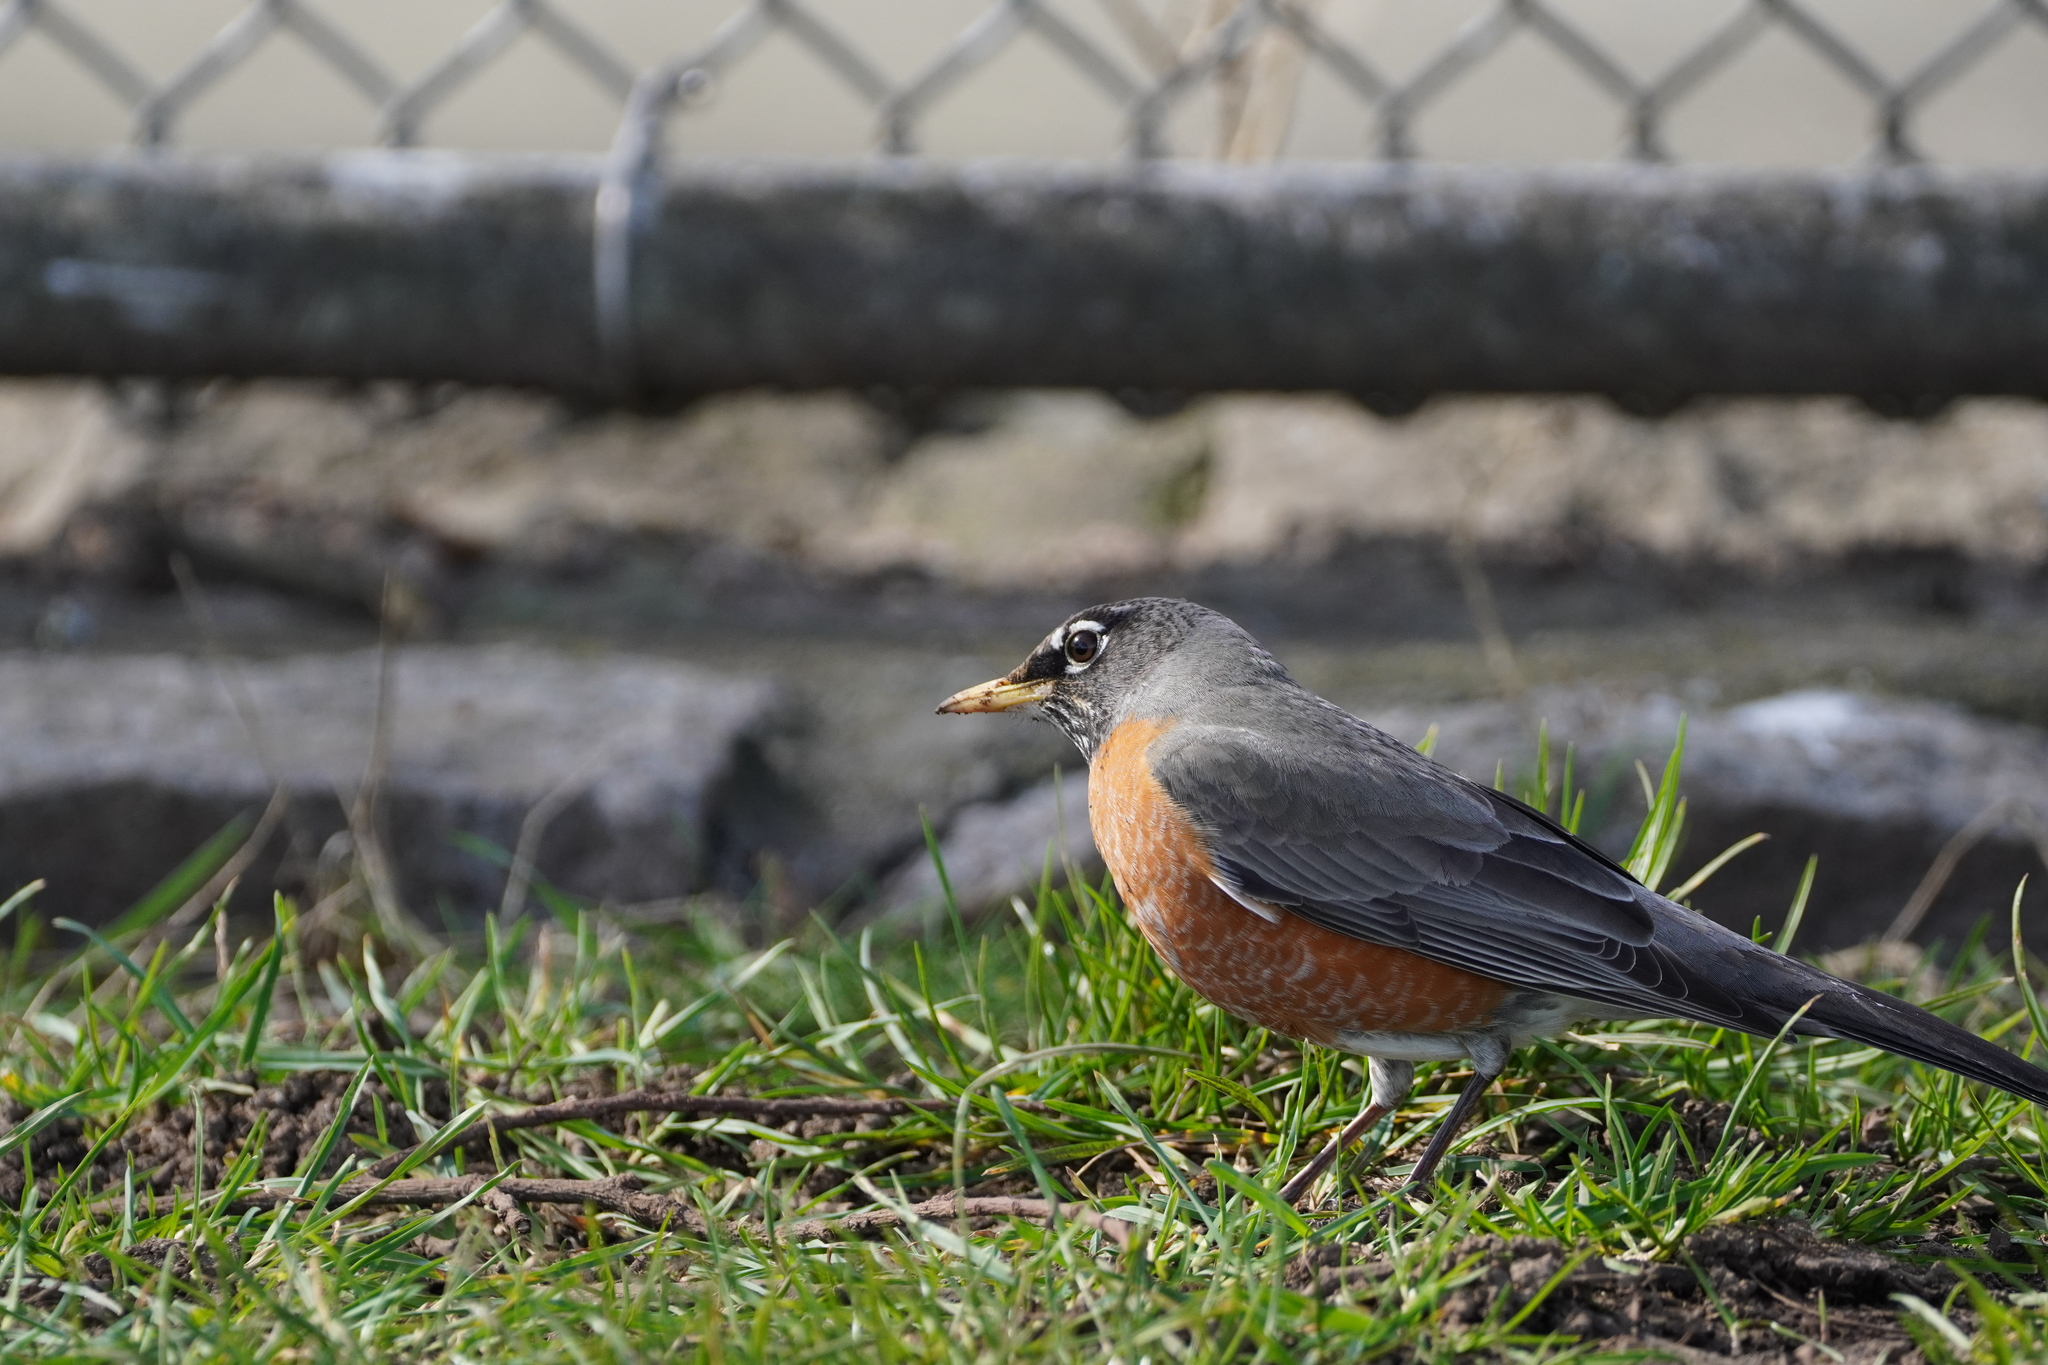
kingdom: Animalia
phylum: Chordata
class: Aves
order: Passeriformes
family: Turdidae
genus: Turdus
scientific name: Turdus migratorius
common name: American robin
